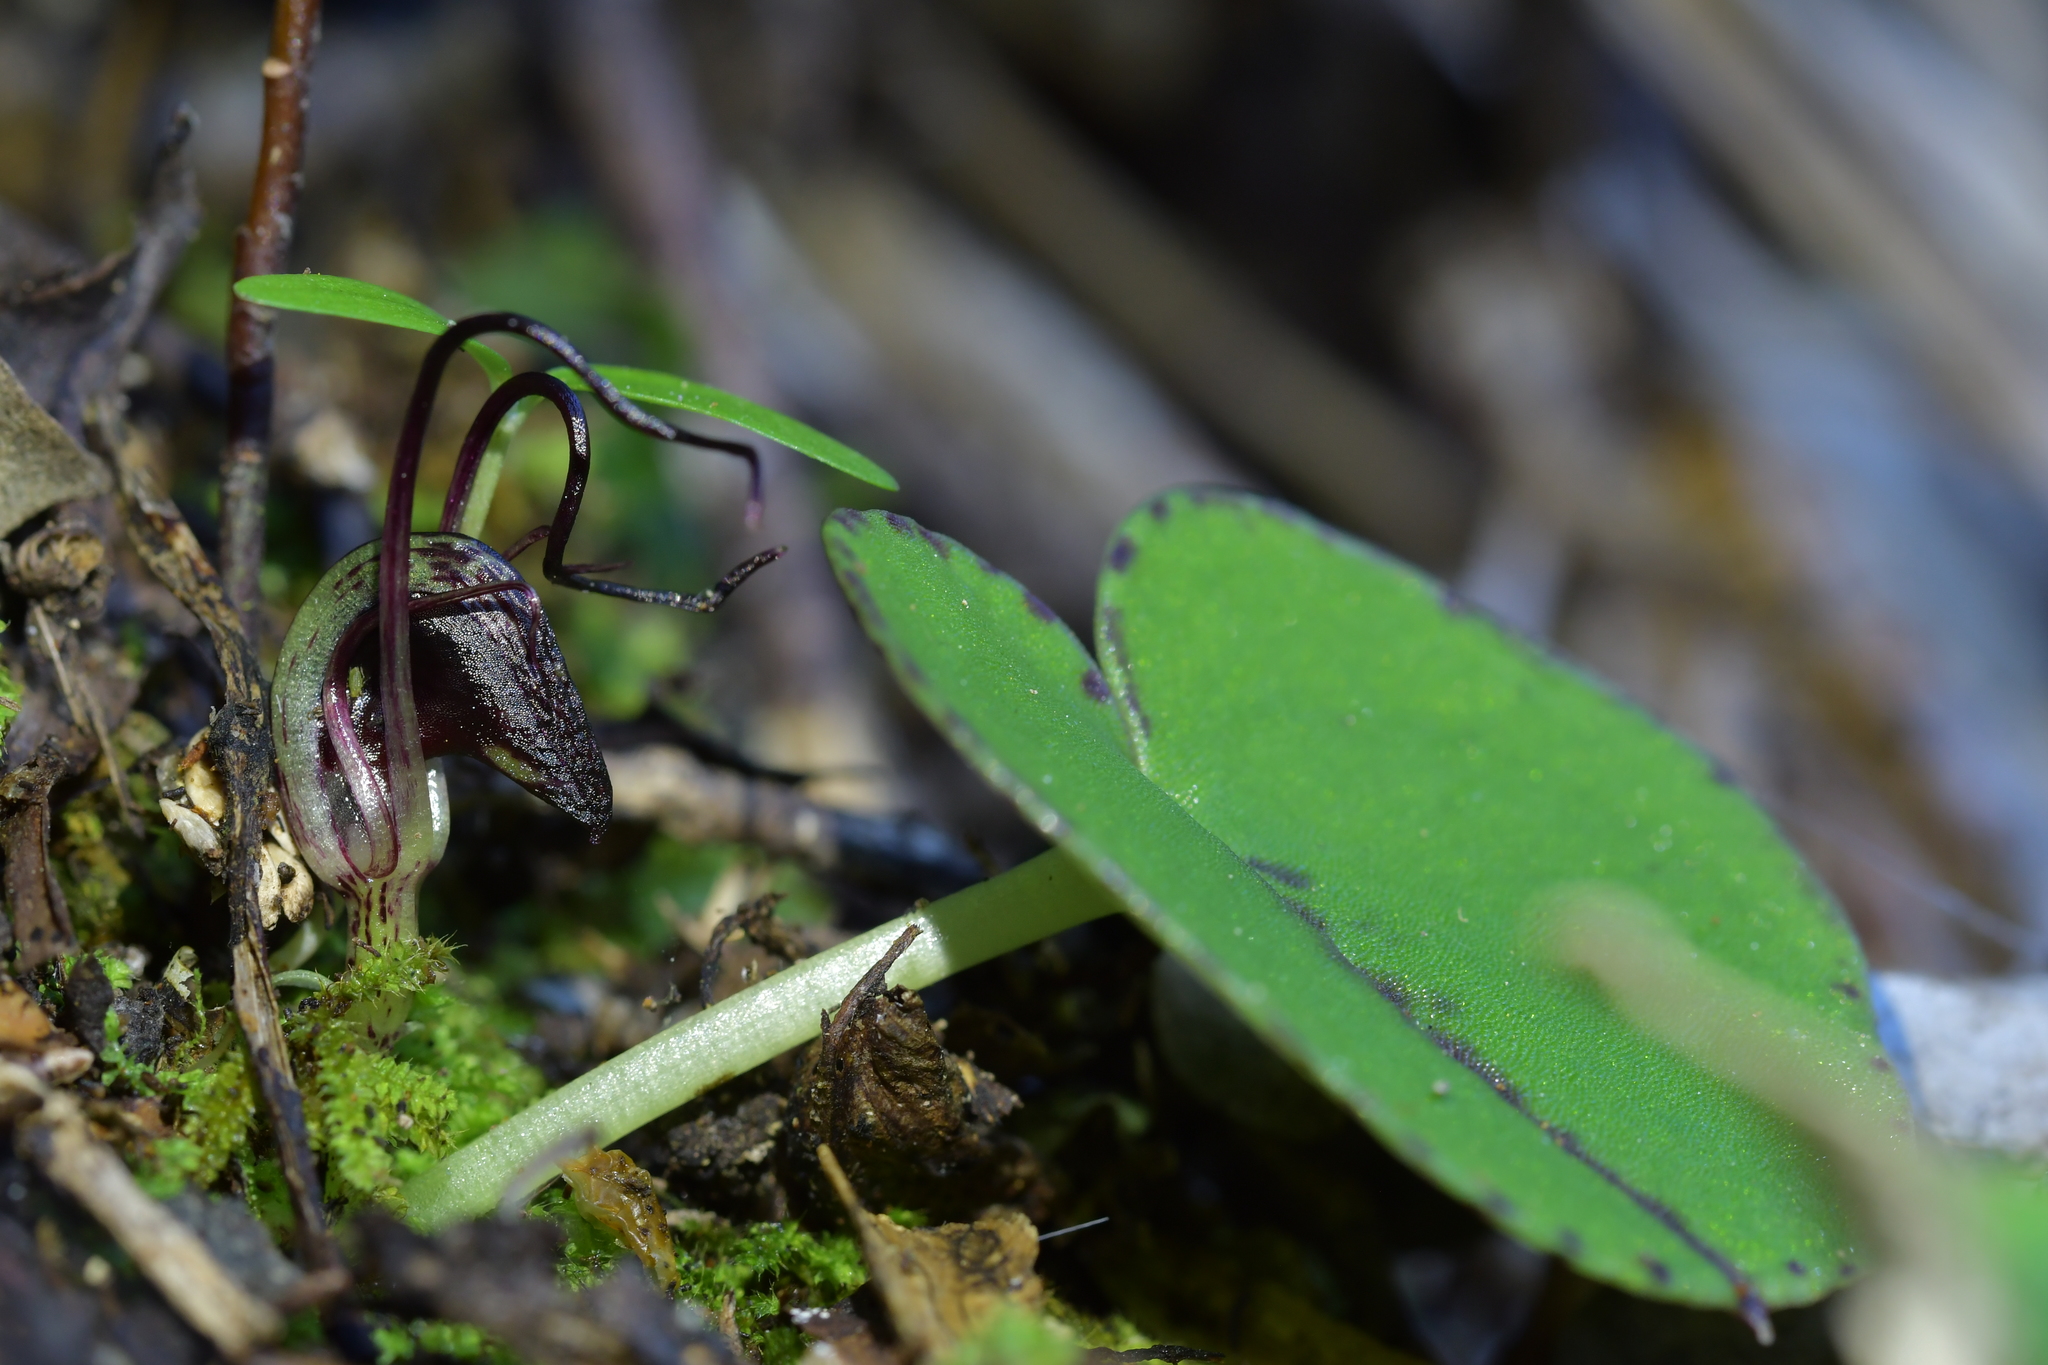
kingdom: Plantae
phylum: Tracheophyta
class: Liliopsida
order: Asparagales
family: Orchidaceae
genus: Corybas
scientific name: Corybas macranthus
